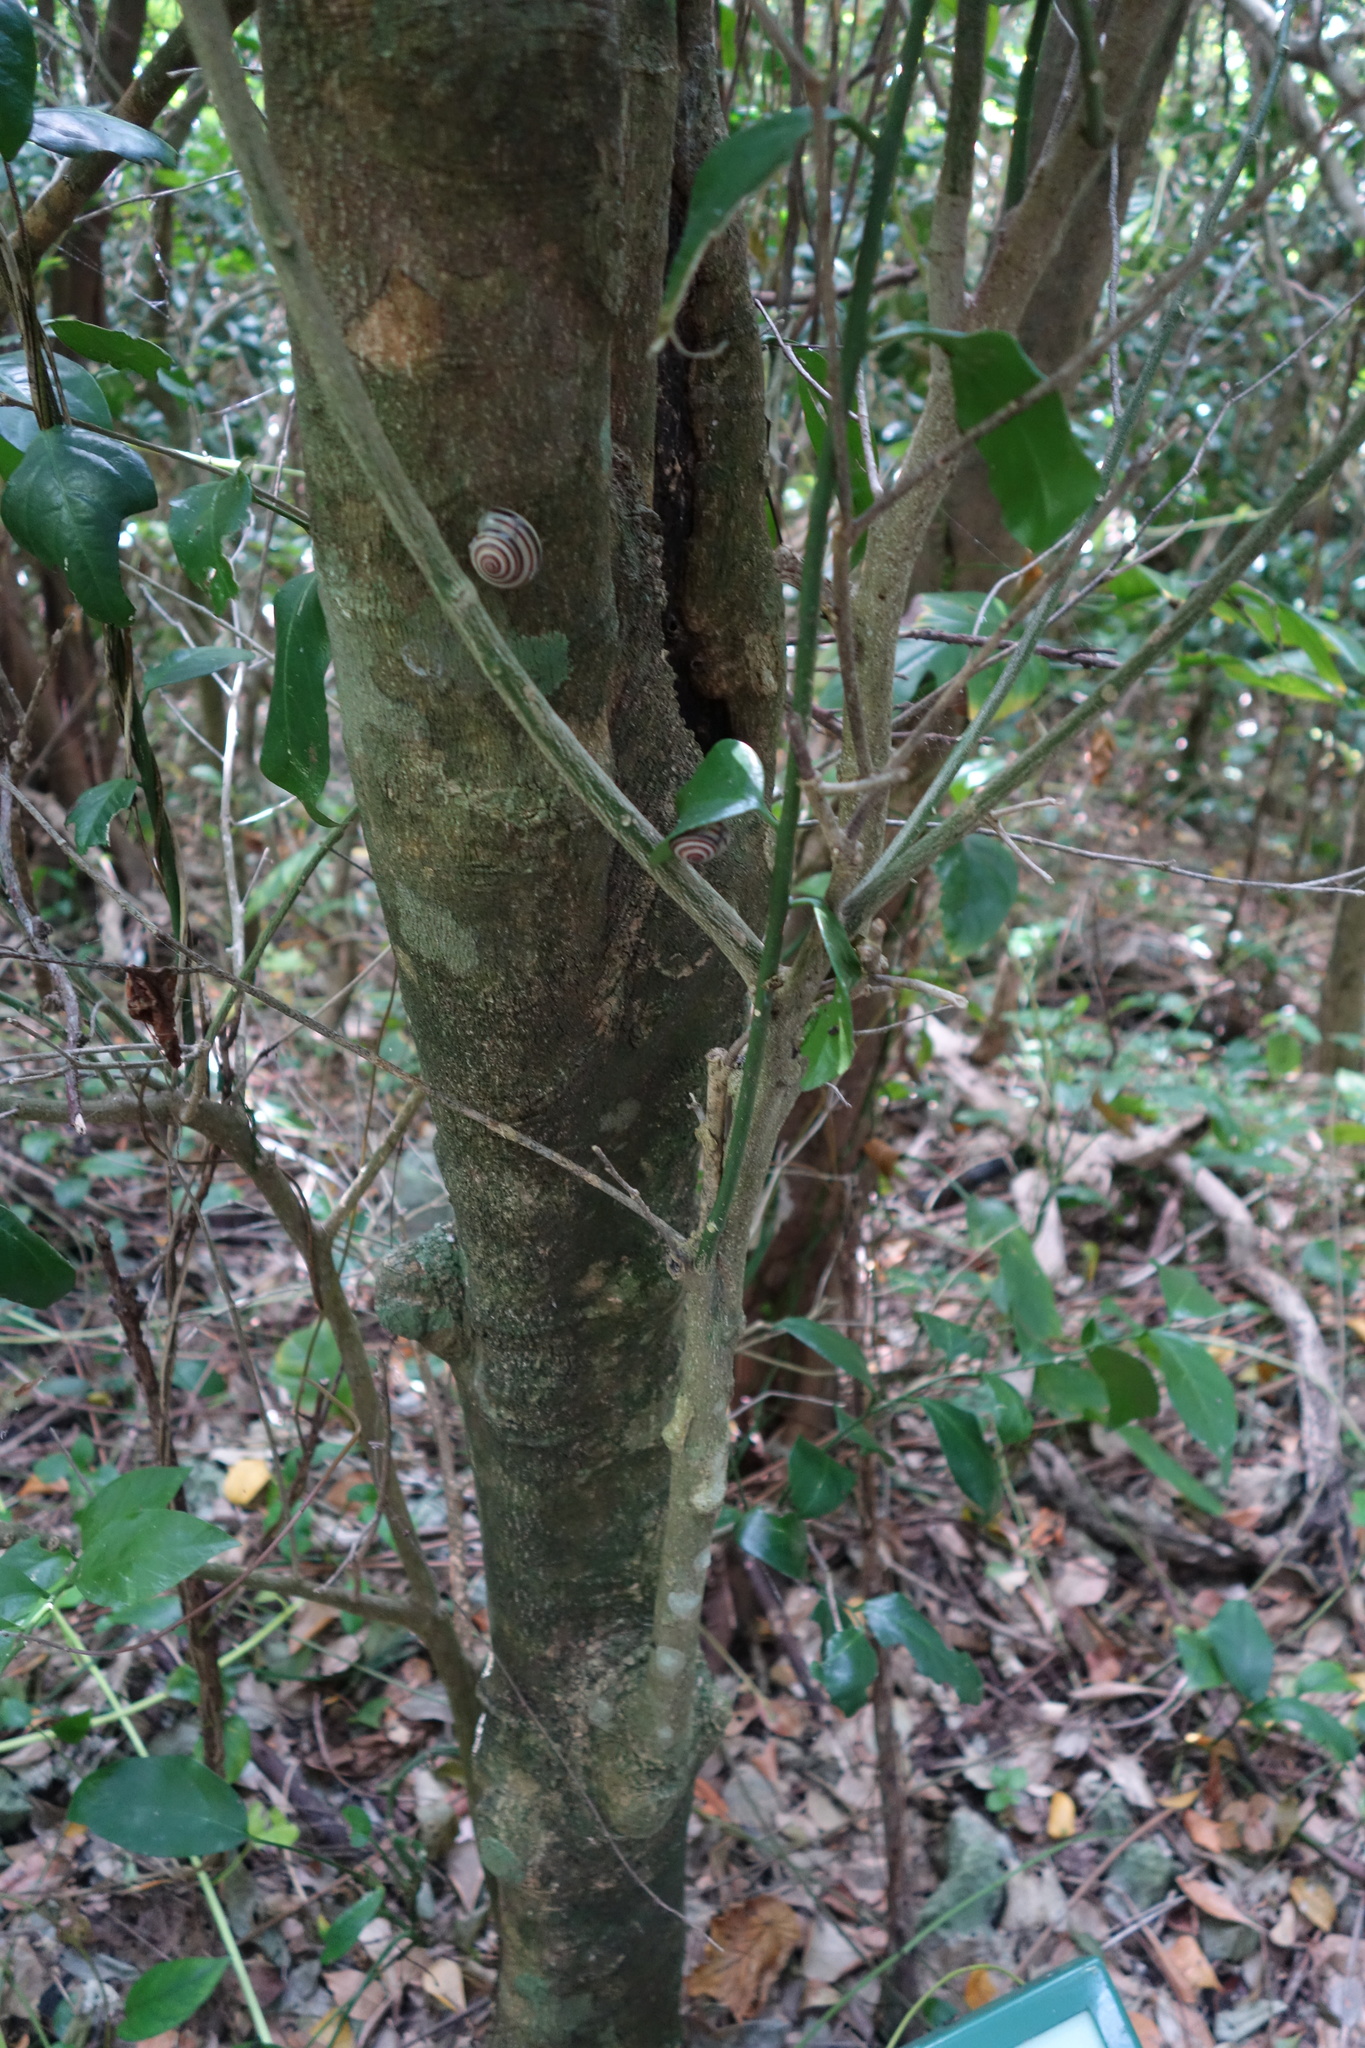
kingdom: Plantae
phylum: Tracheophyta
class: Magnoliopsida
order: Santalales
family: Opiliaceae
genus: Champereia
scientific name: Champereia manillana
